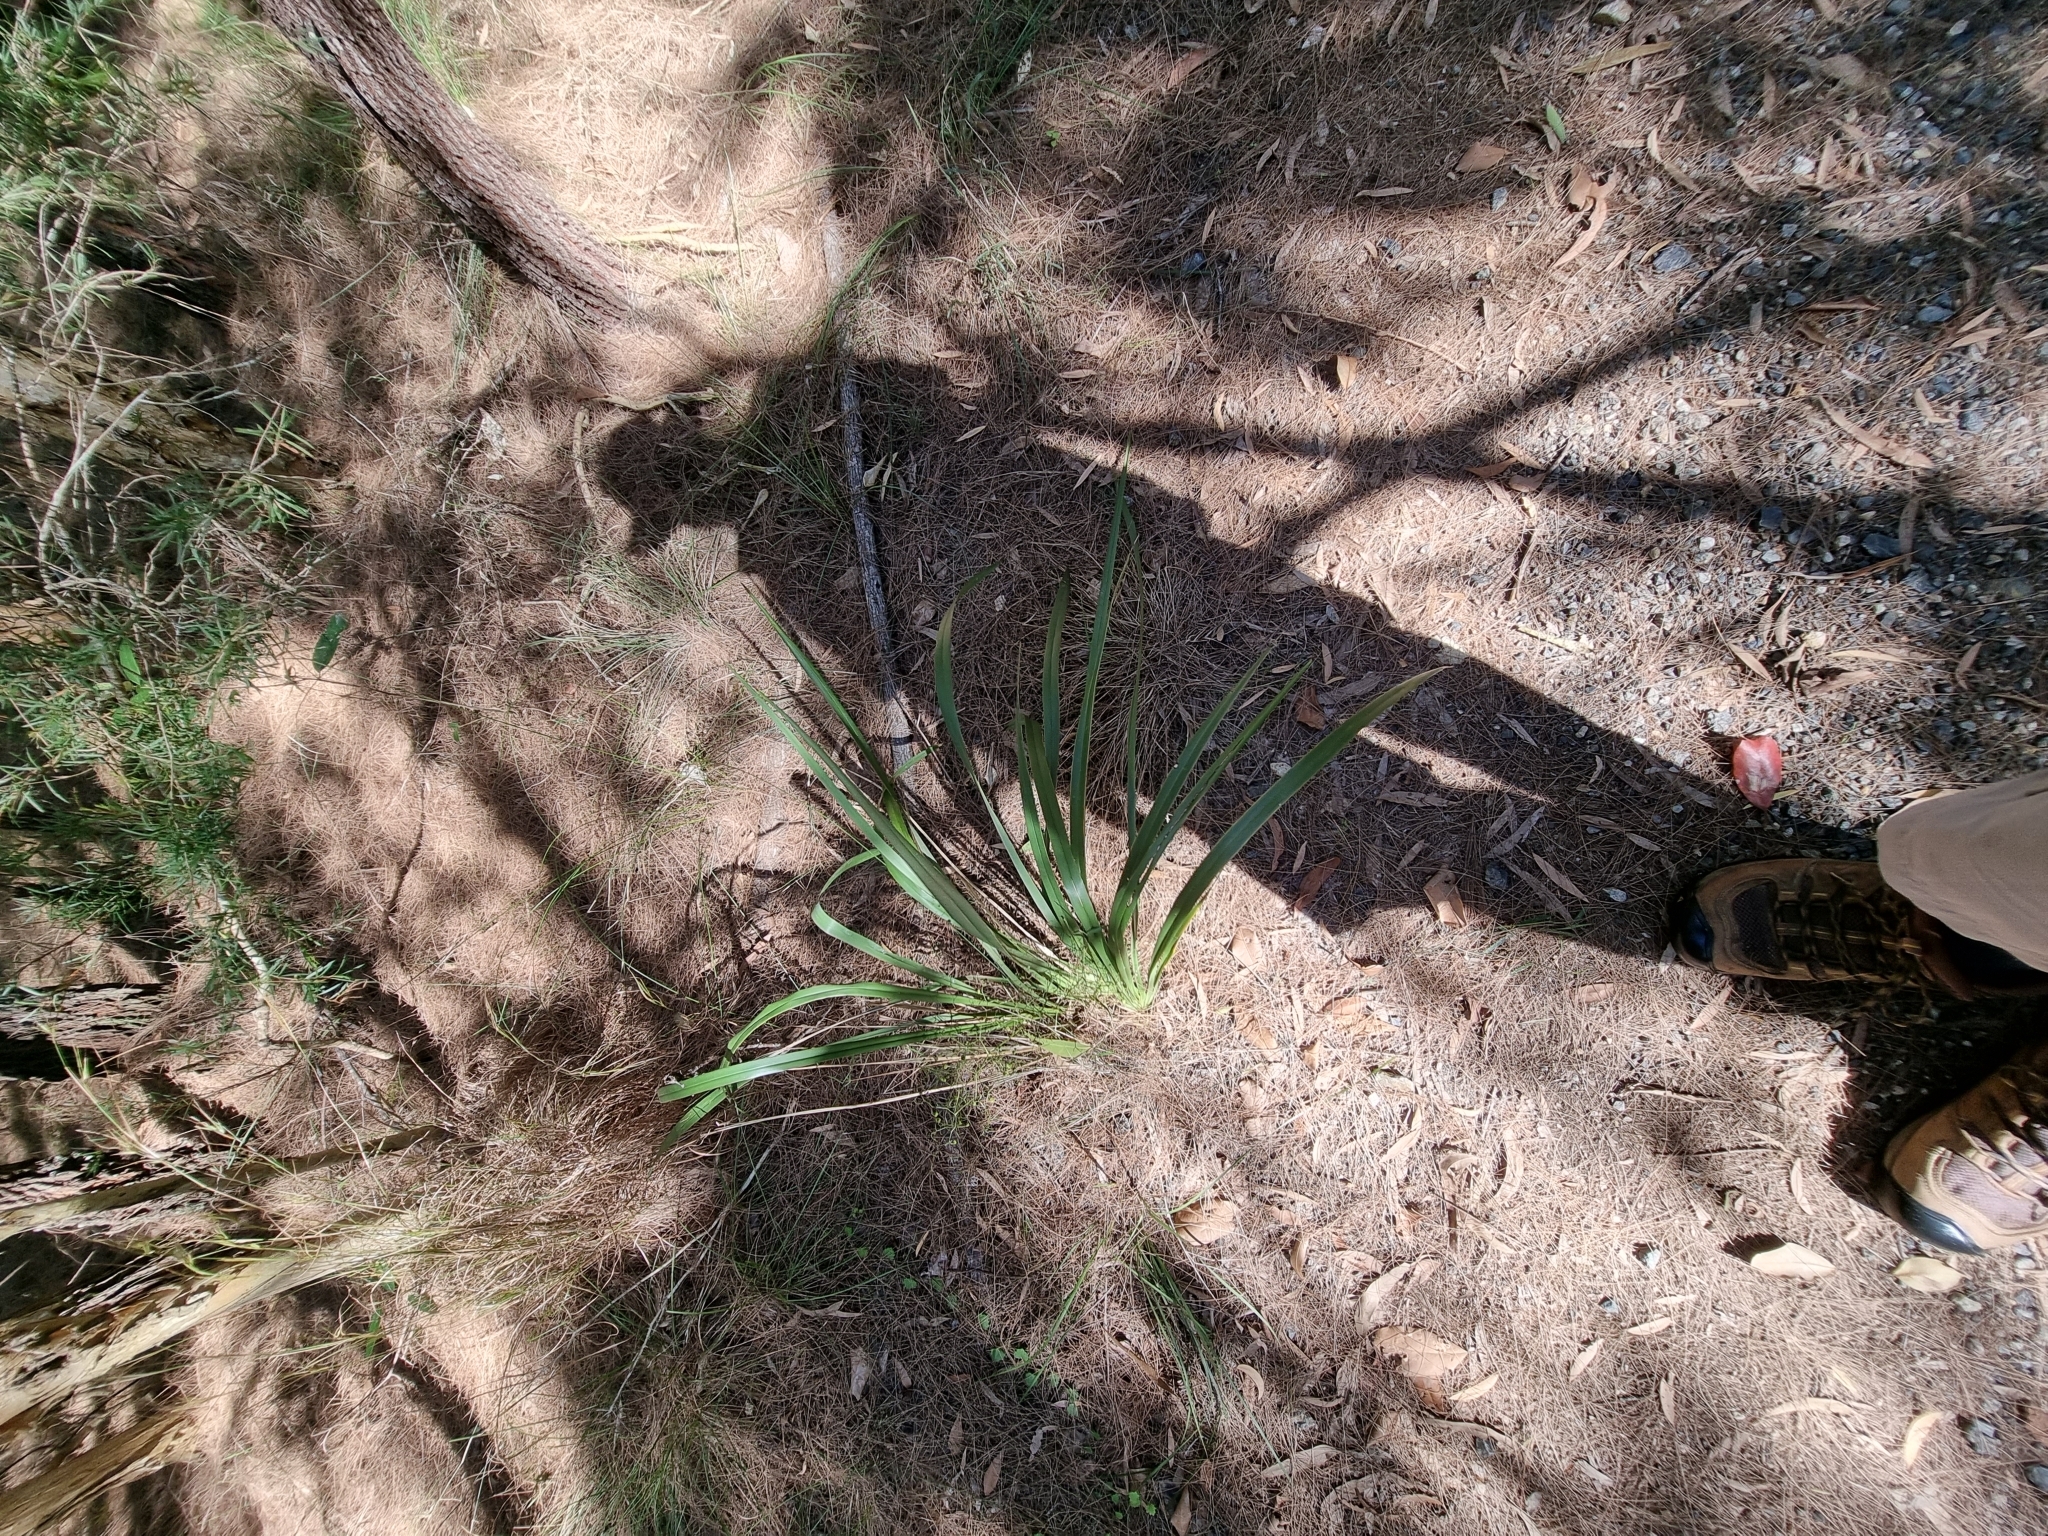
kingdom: Plantae
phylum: Tracheophyta
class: Liliopsida
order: Asparagales
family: Asphodelaceae
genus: Dianella
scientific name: Dianella brevipedunculata
